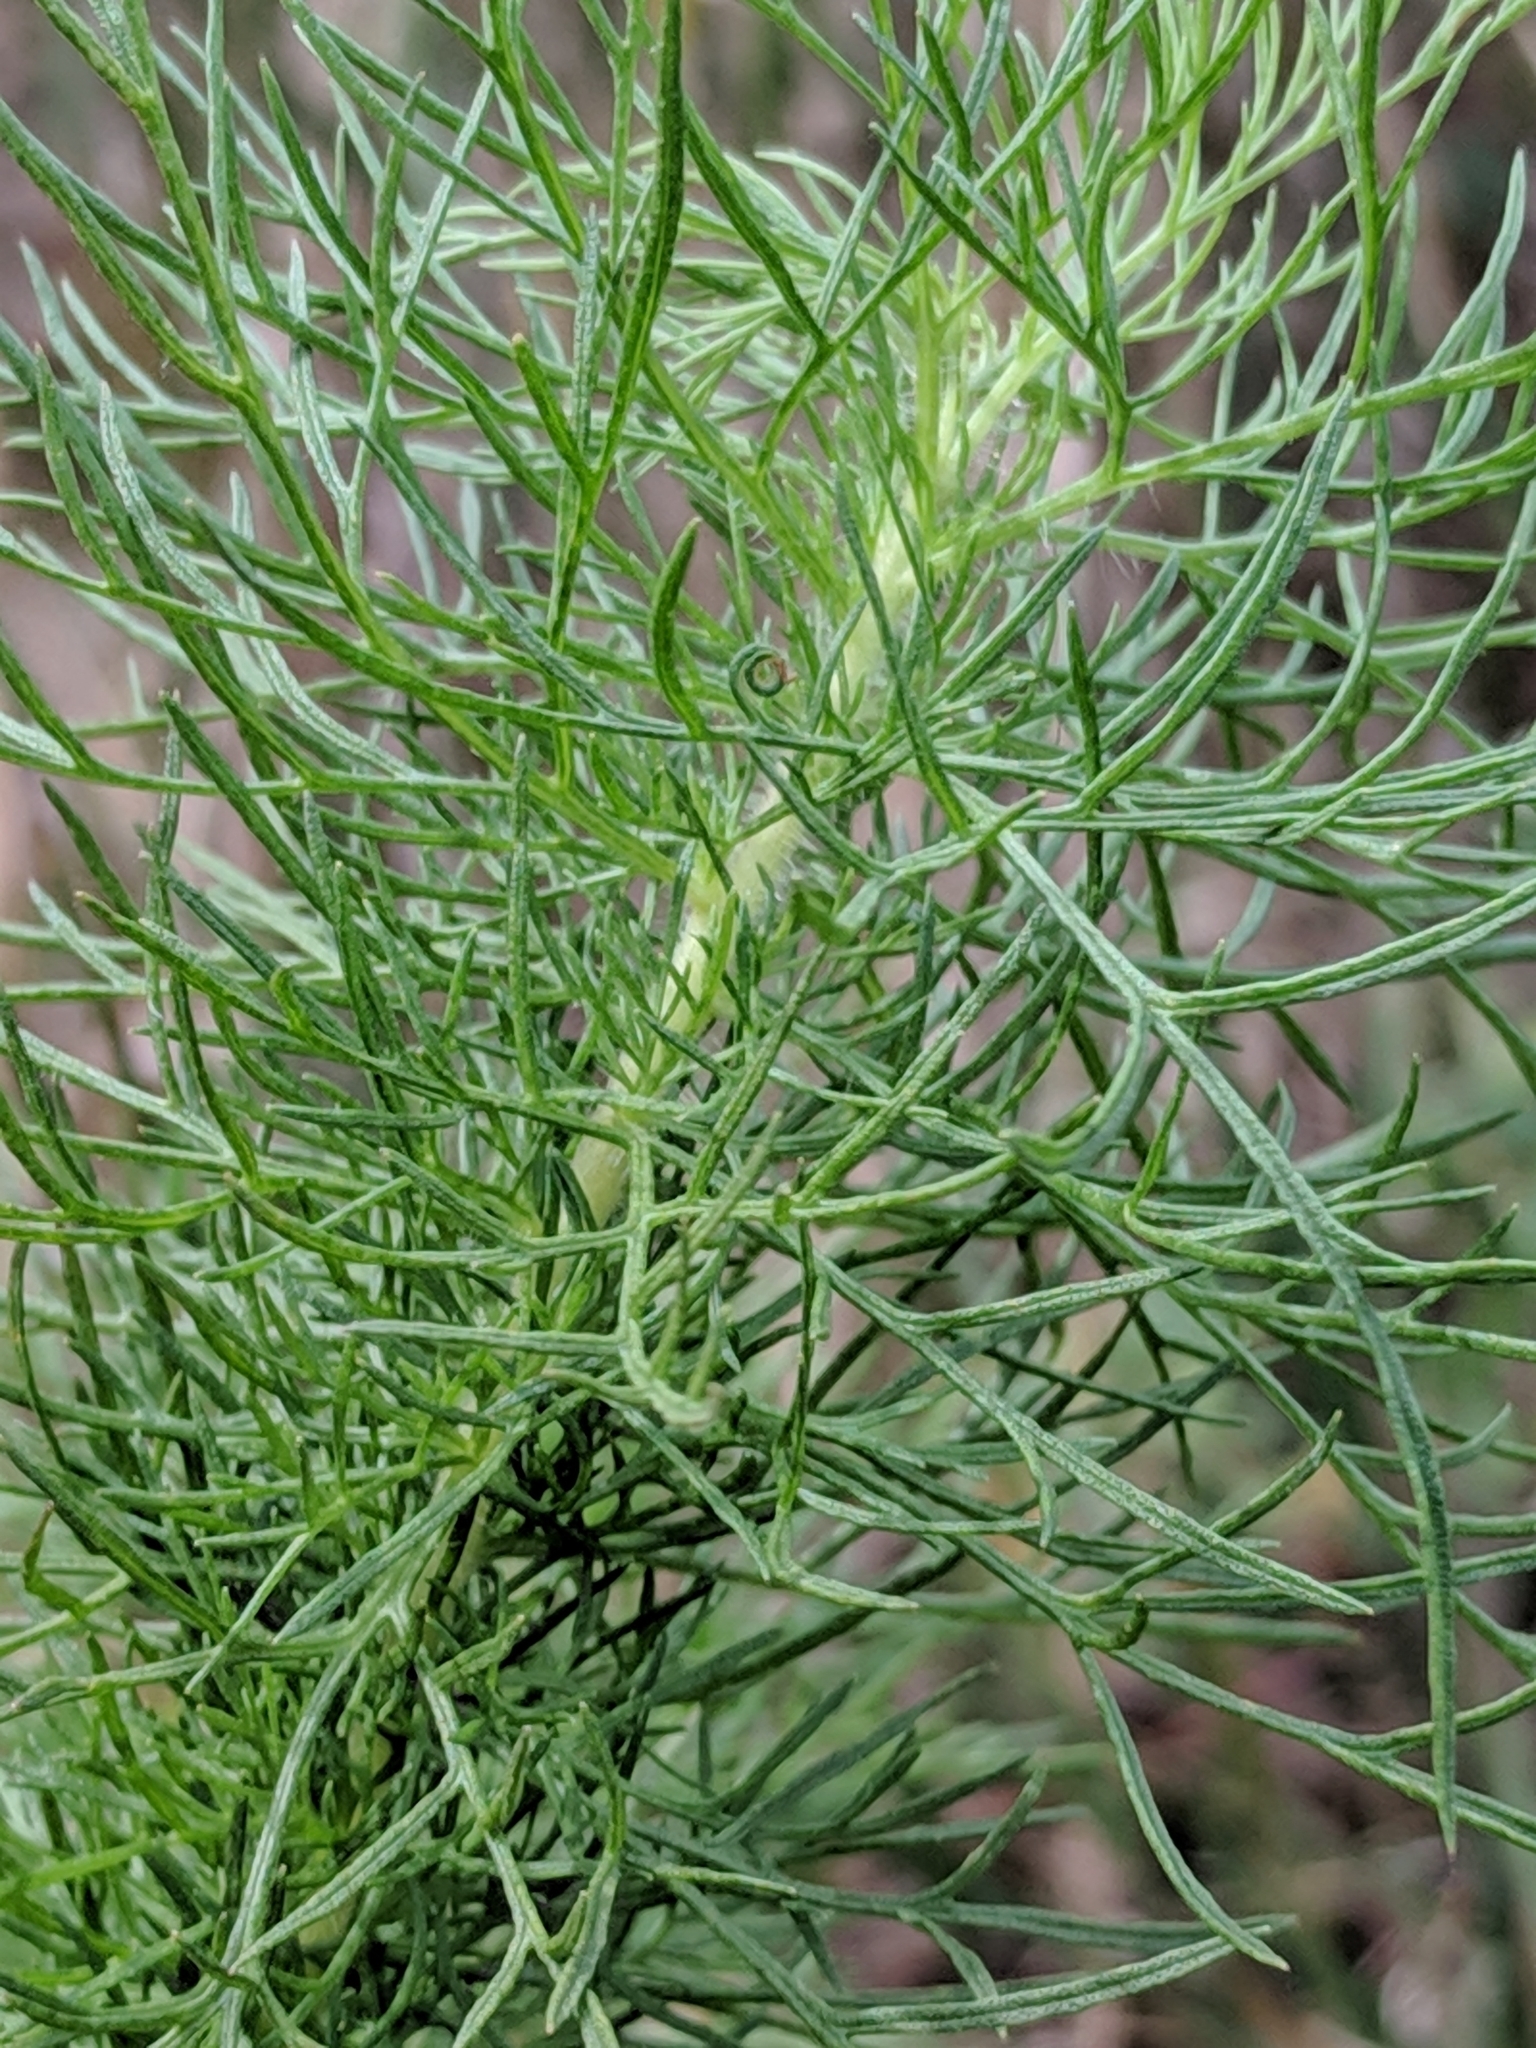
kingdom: Plantae
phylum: Tracheophyta
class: Magnoliopsida
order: Asterales
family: Asteraceae
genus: Eupatorium
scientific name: Eupatorium capillifolium
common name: Dog-fennel
